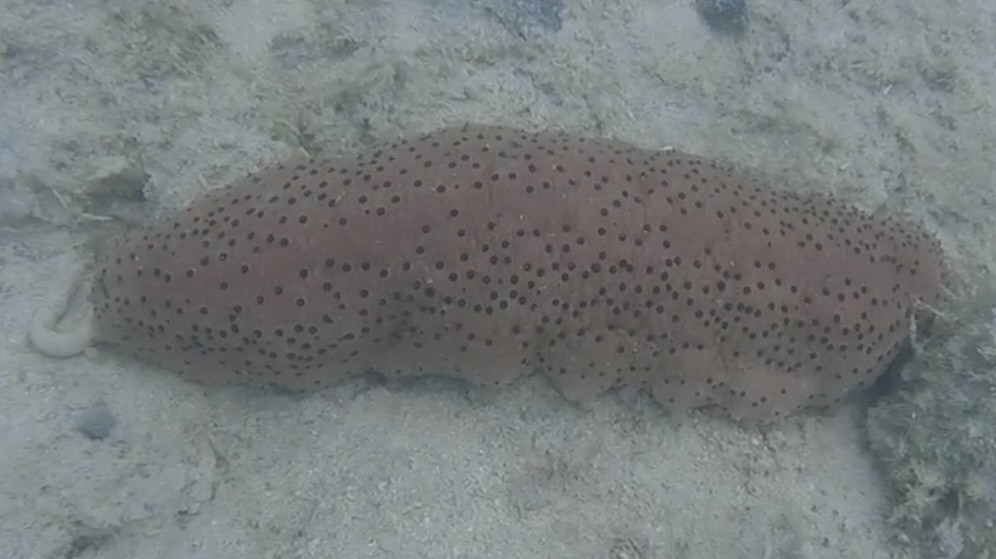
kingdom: Animalia
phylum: Echinodermata
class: Holothuroidea
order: Synallactida
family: Stichopodidae
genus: Isostichopus
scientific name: Isostichopus badionotus
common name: Chocolate chip cucumber
